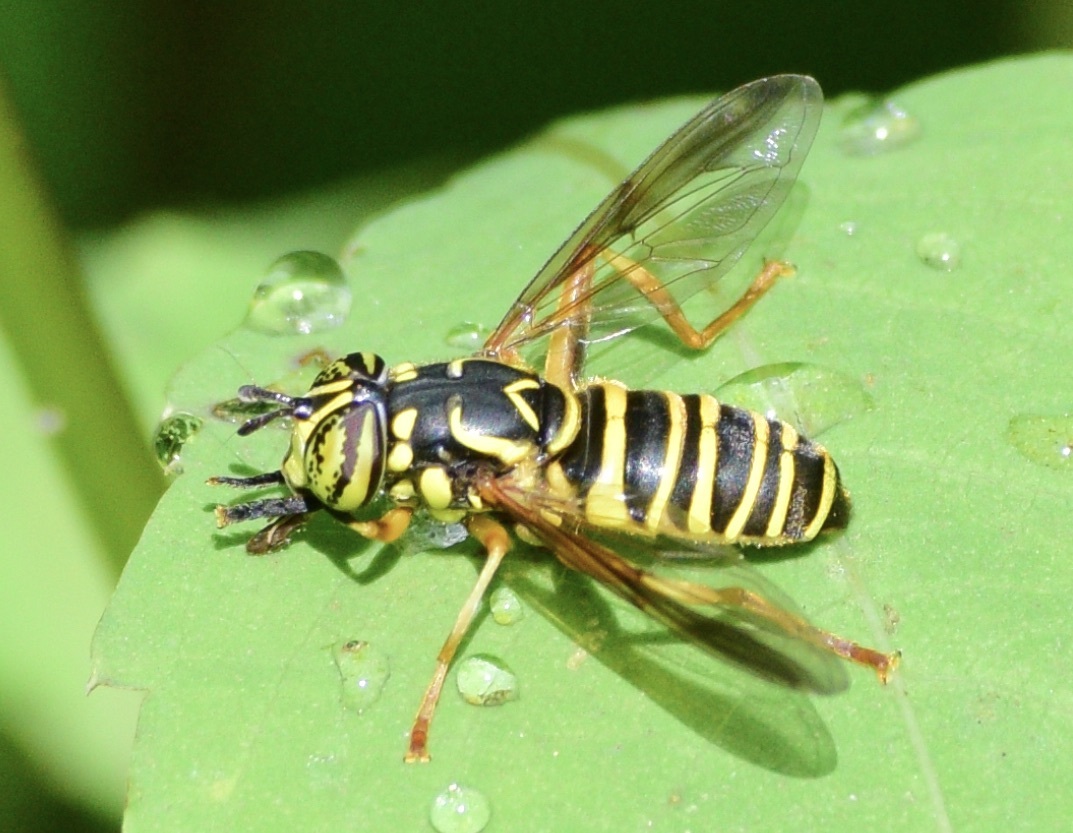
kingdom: Animalia
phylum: Arthropoda
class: Insecta
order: Diptera
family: Syrphidae
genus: Spilomyia
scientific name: Spilomyia longicornis
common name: Eastern hornet fly
